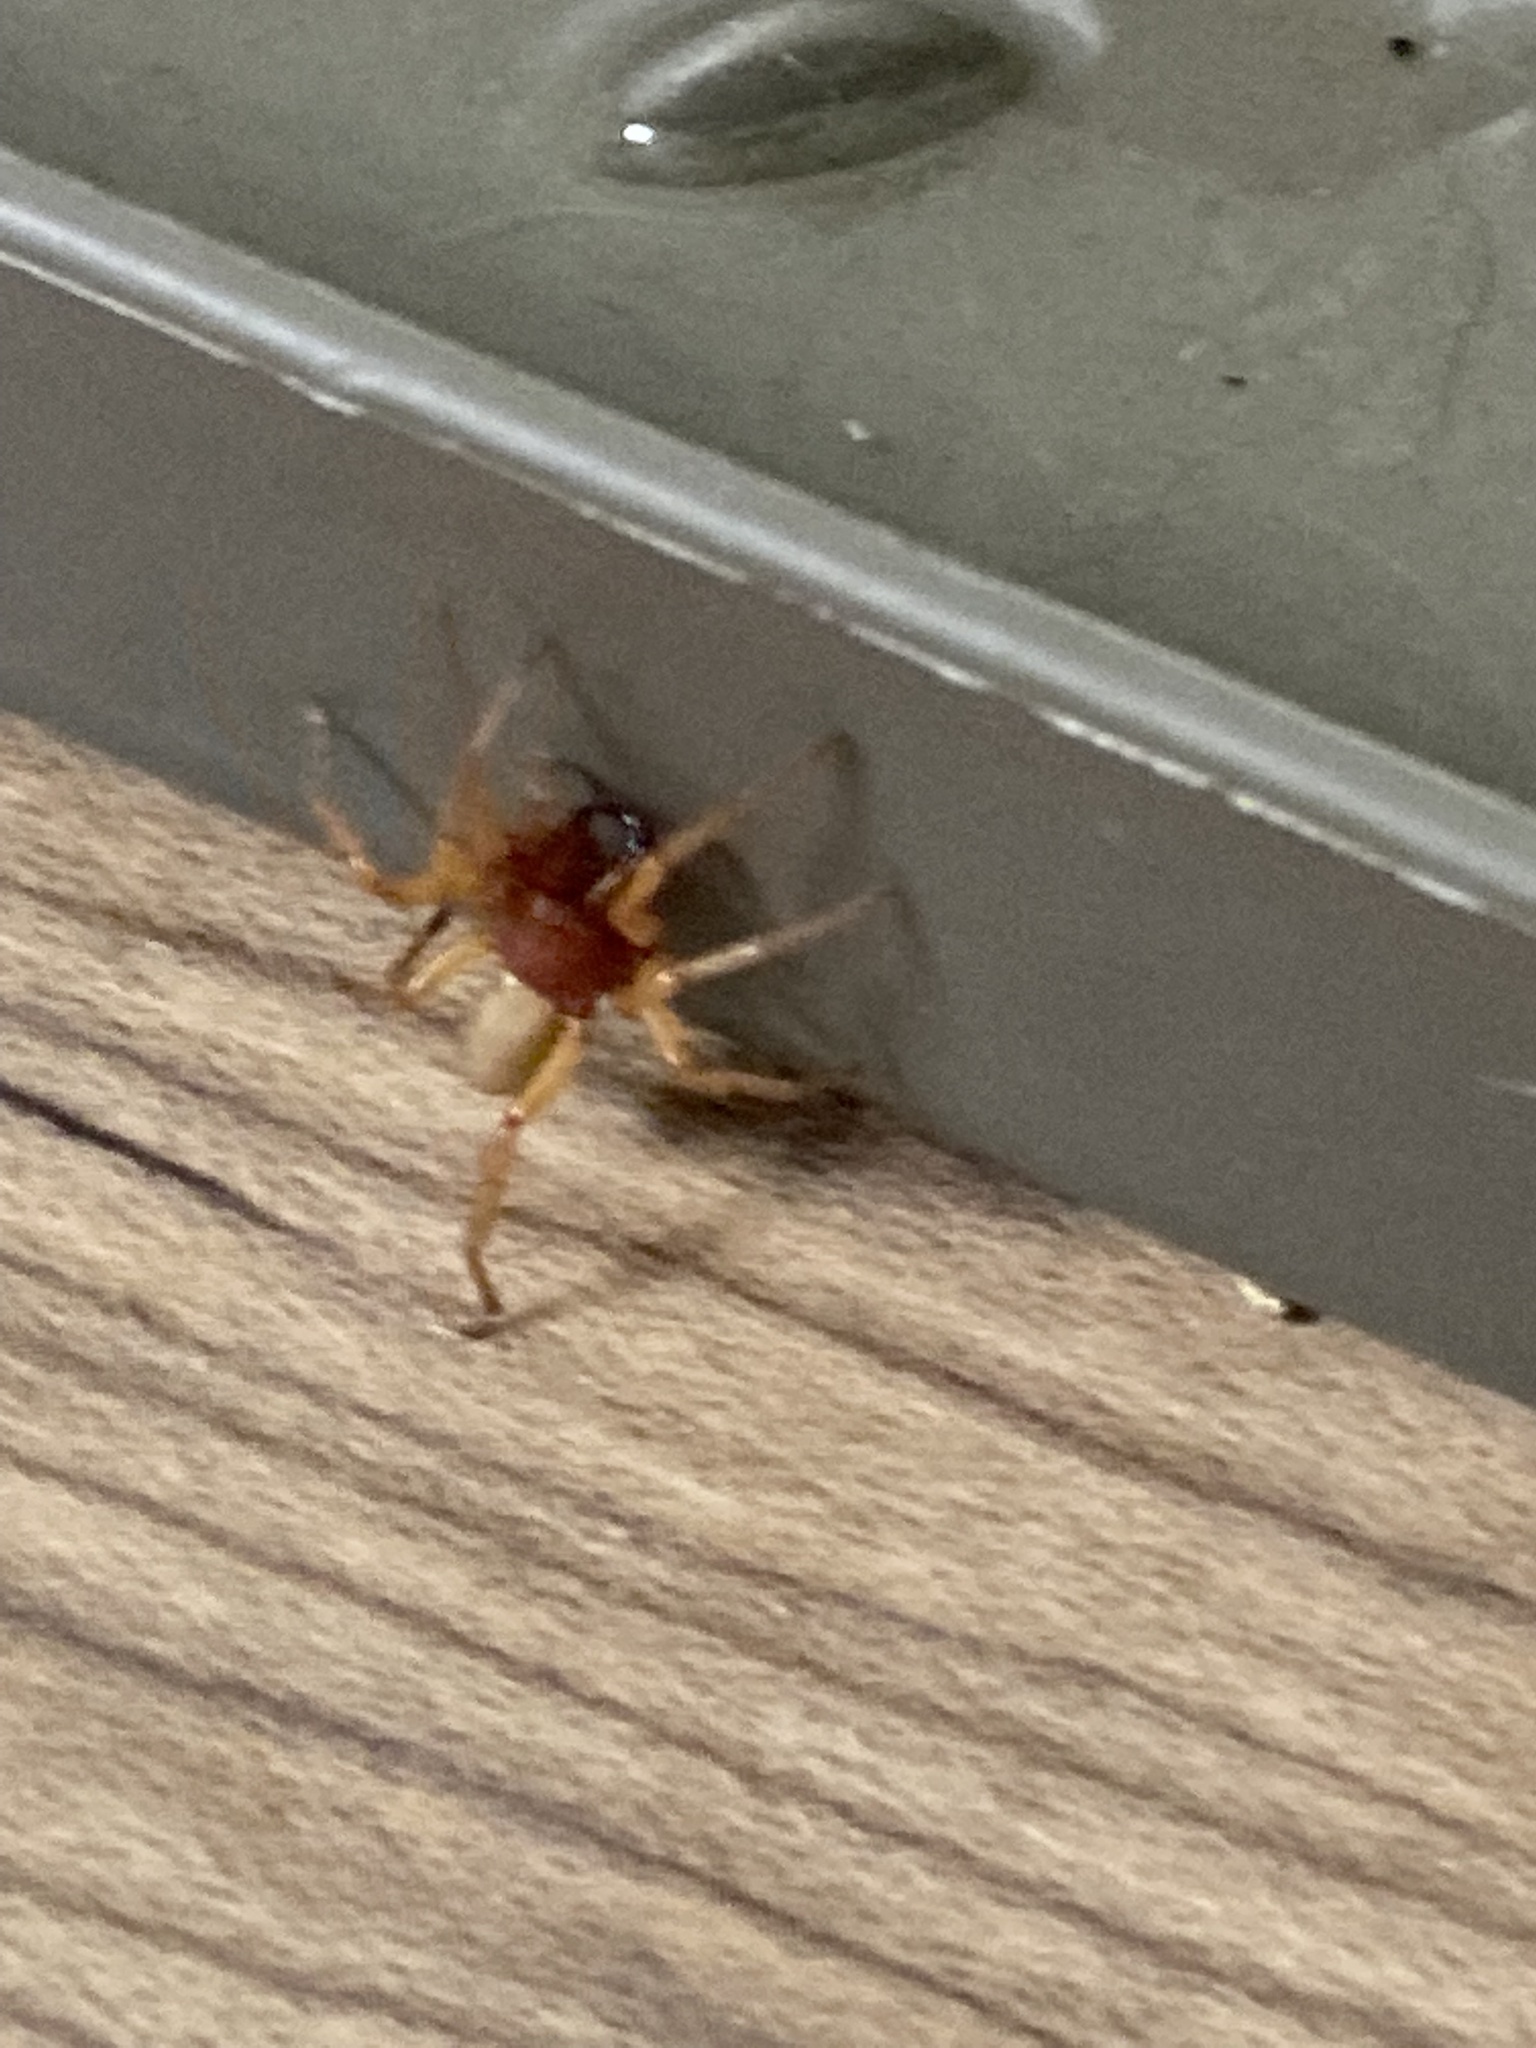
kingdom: Animalia
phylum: Arthropoda
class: Arachnida
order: Araneae
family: Dysderidae
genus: Dysdera
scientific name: Dysdera crocata
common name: Woodlouse spider
